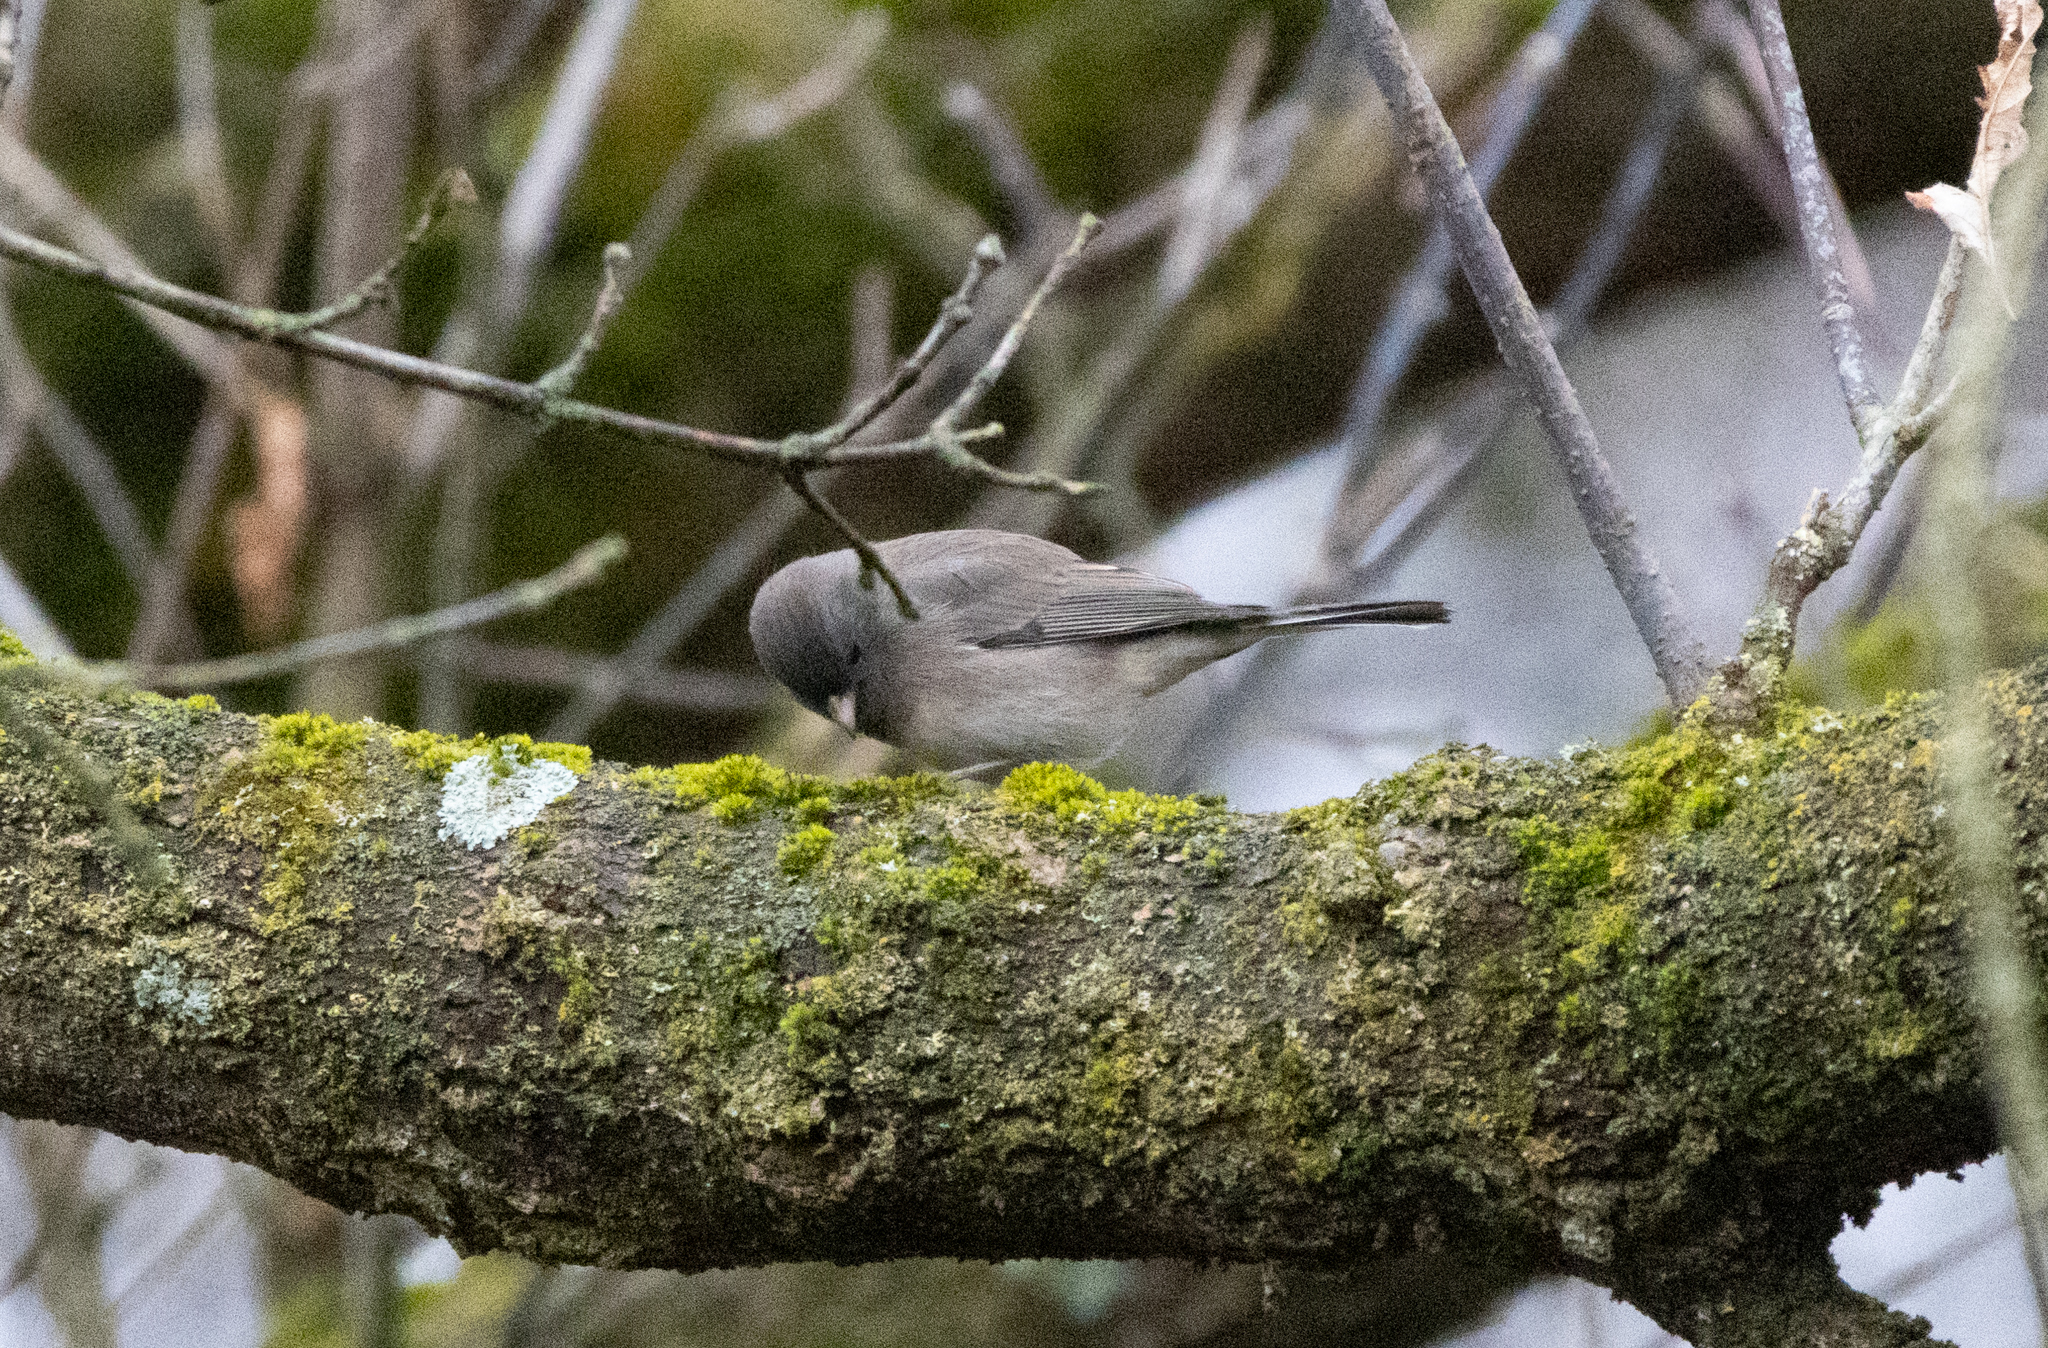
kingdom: Animalia
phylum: Chordata
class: Aves
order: Passeriformes
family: Passerellidae
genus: Junco
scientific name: Junco hyemalis
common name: Dark-eyed junco
